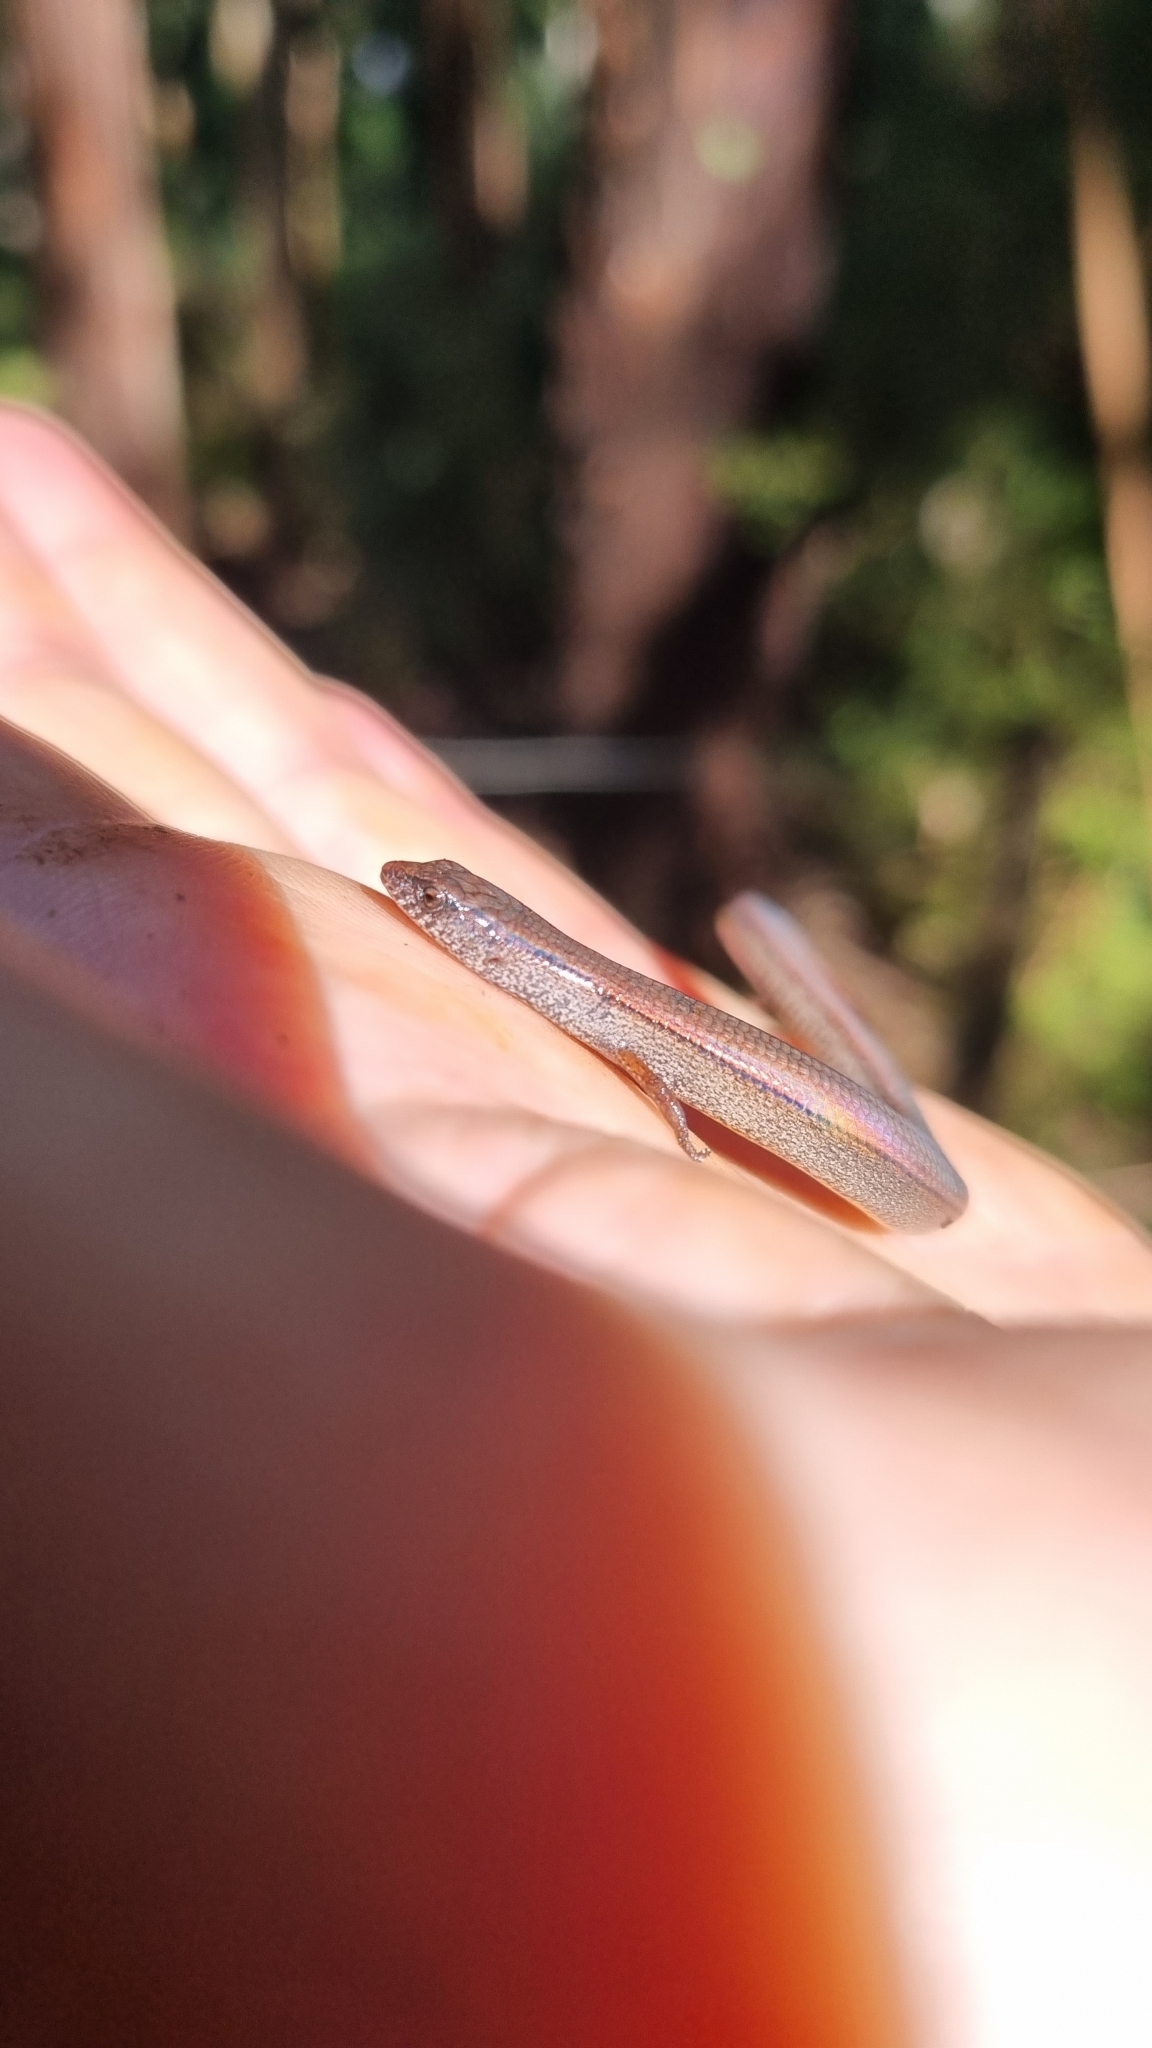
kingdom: Animalia
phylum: Chordata
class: Squamata
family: Scincidae
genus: Anepischetosia
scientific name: Anepischetosia maccoyi
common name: Highlands forest-skink
